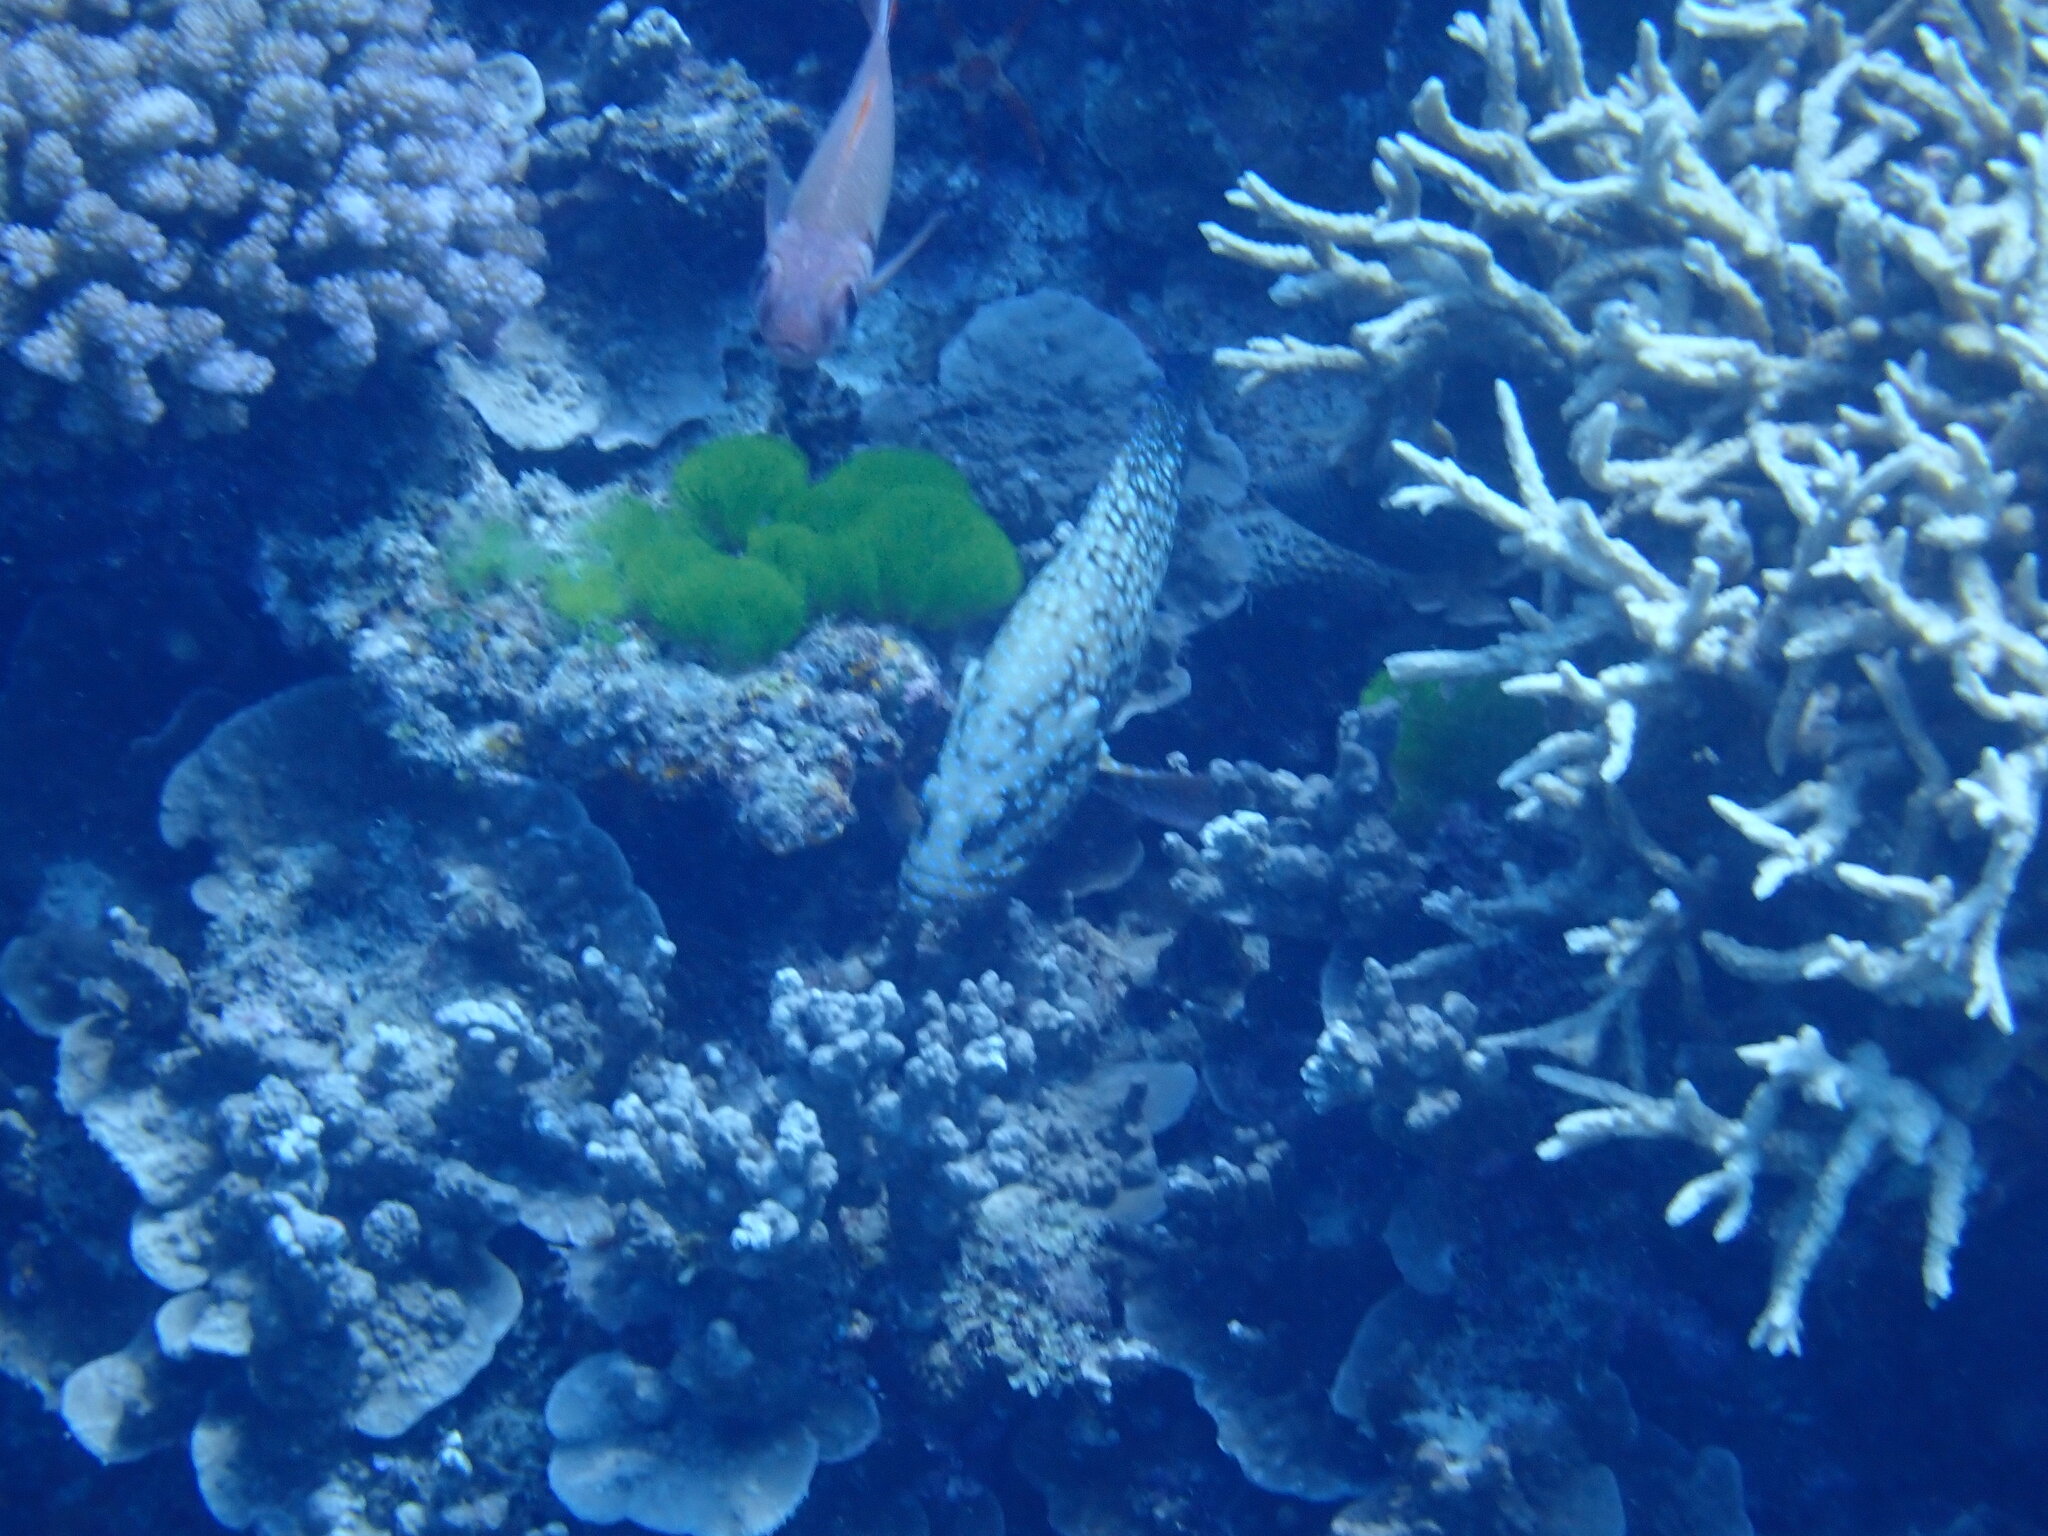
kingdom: Animalia
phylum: Chordata
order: Perciformes
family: Serranidae
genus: Cephalopholis
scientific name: Cephalopholis cyanostigma
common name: Bluespotted hind
